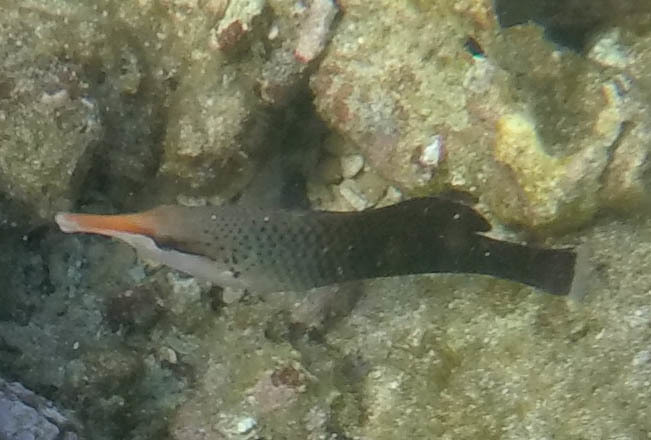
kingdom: Animalia
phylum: Chordata
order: Perciformes
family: Labridae
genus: Gomphosus
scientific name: Gomphosus varius
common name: Bird wrasse
